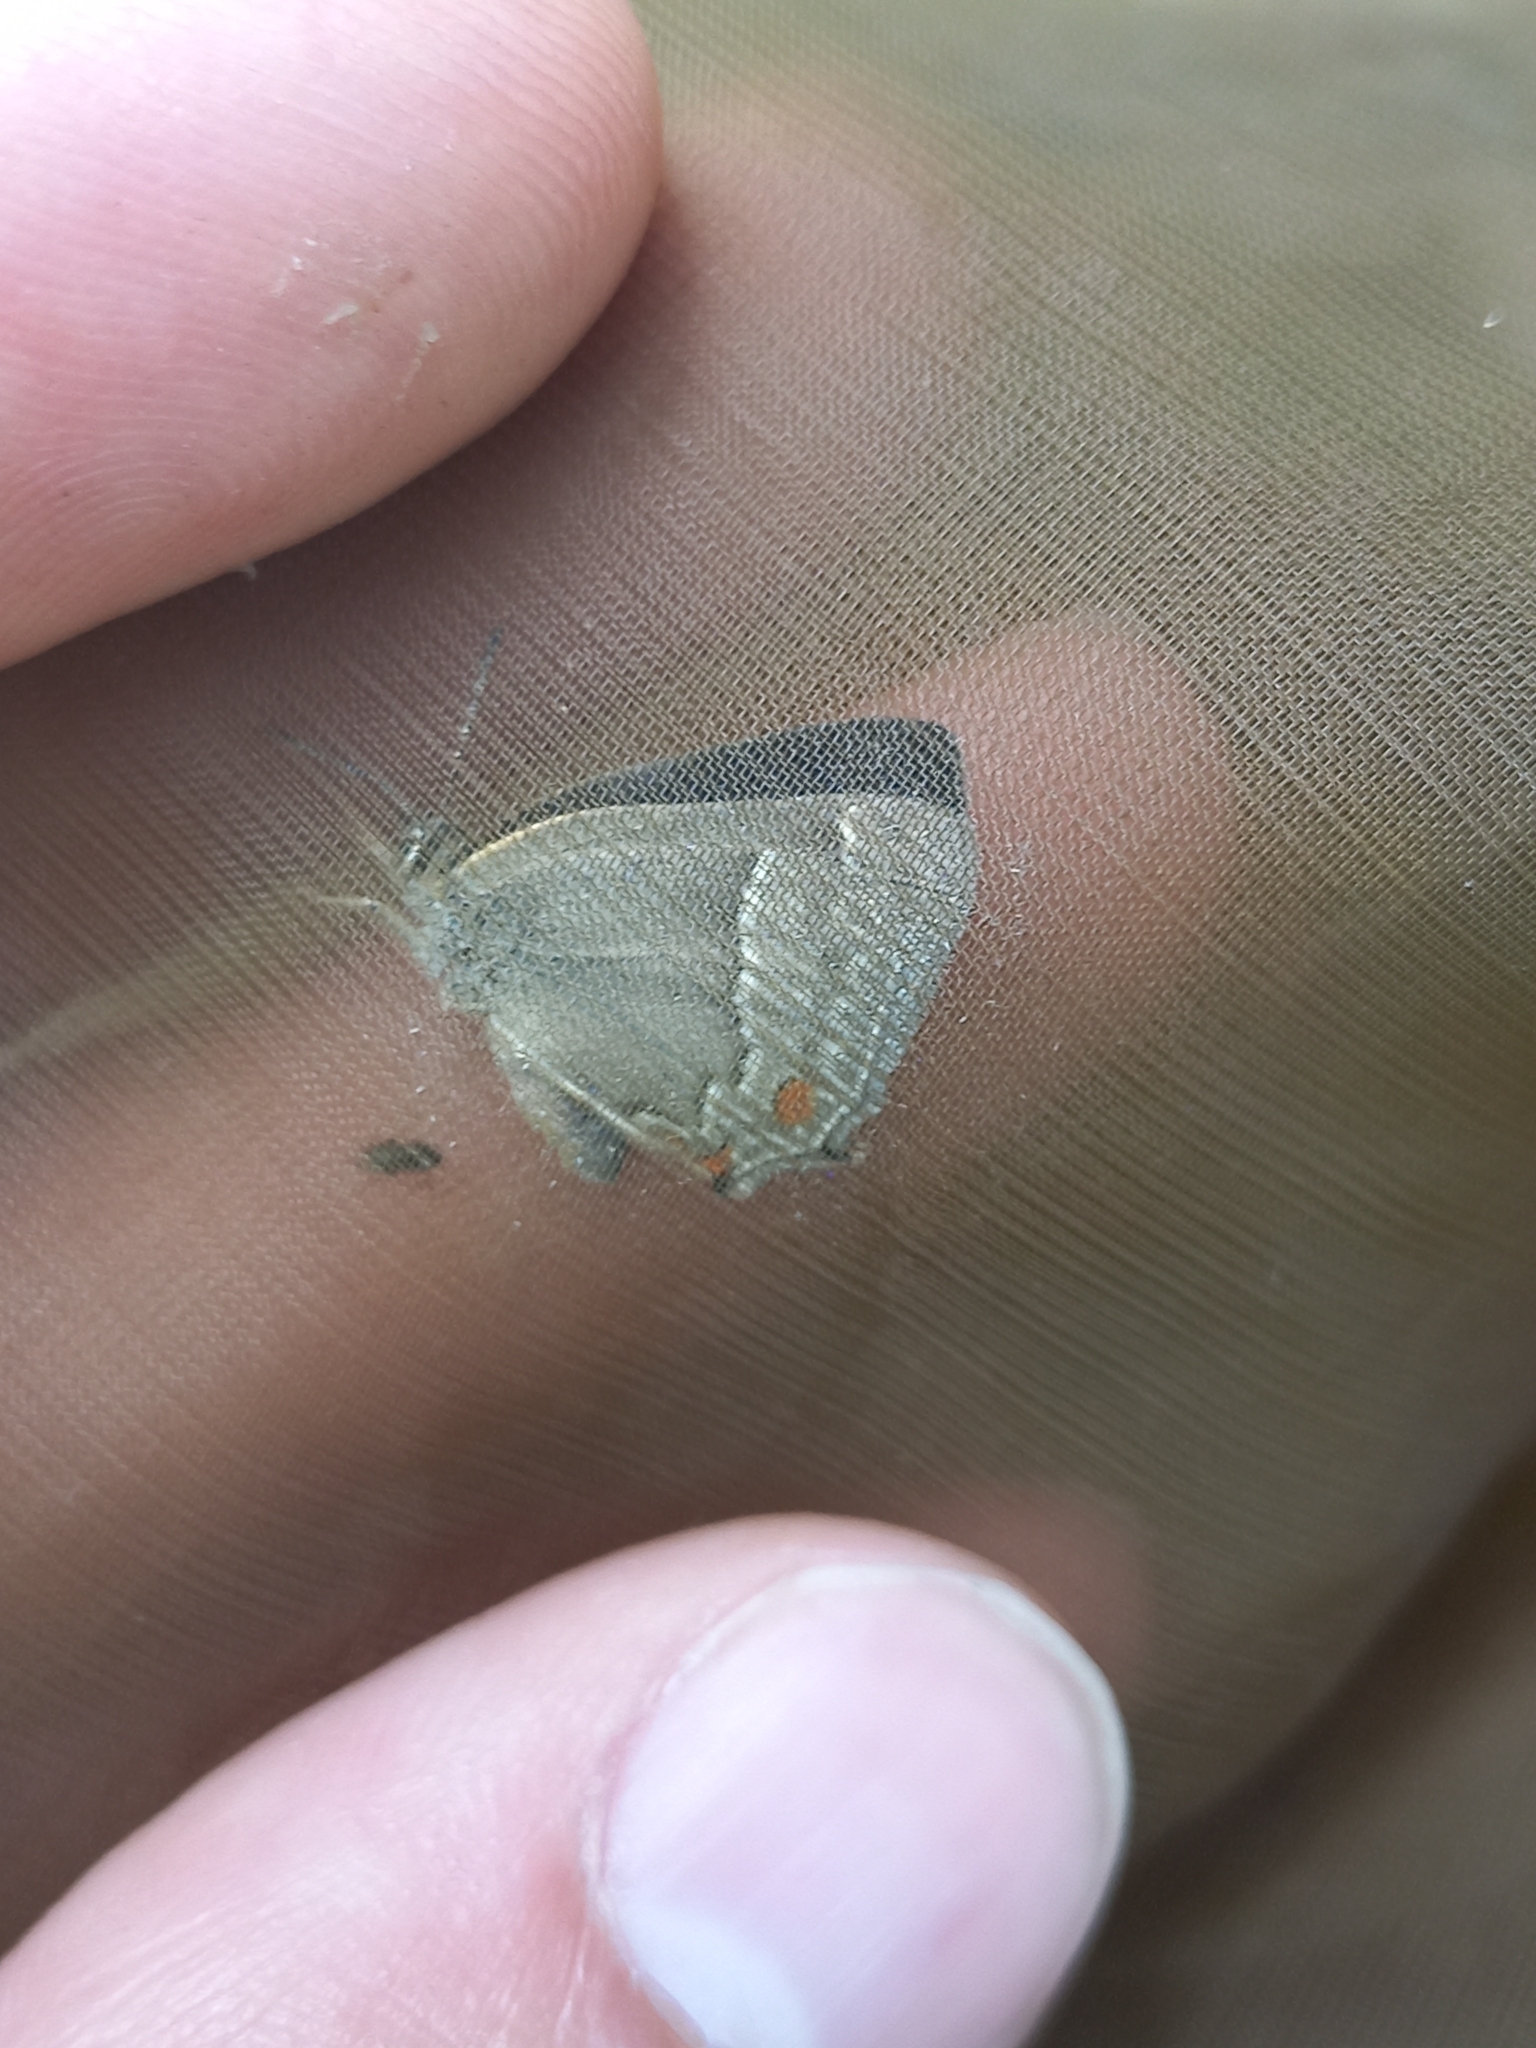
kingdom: Animalia
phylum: Arthropoda
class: Insecta
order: Lepidoptera
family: Lycaenidae
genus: Quercusia
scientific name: Quercusia quercus
